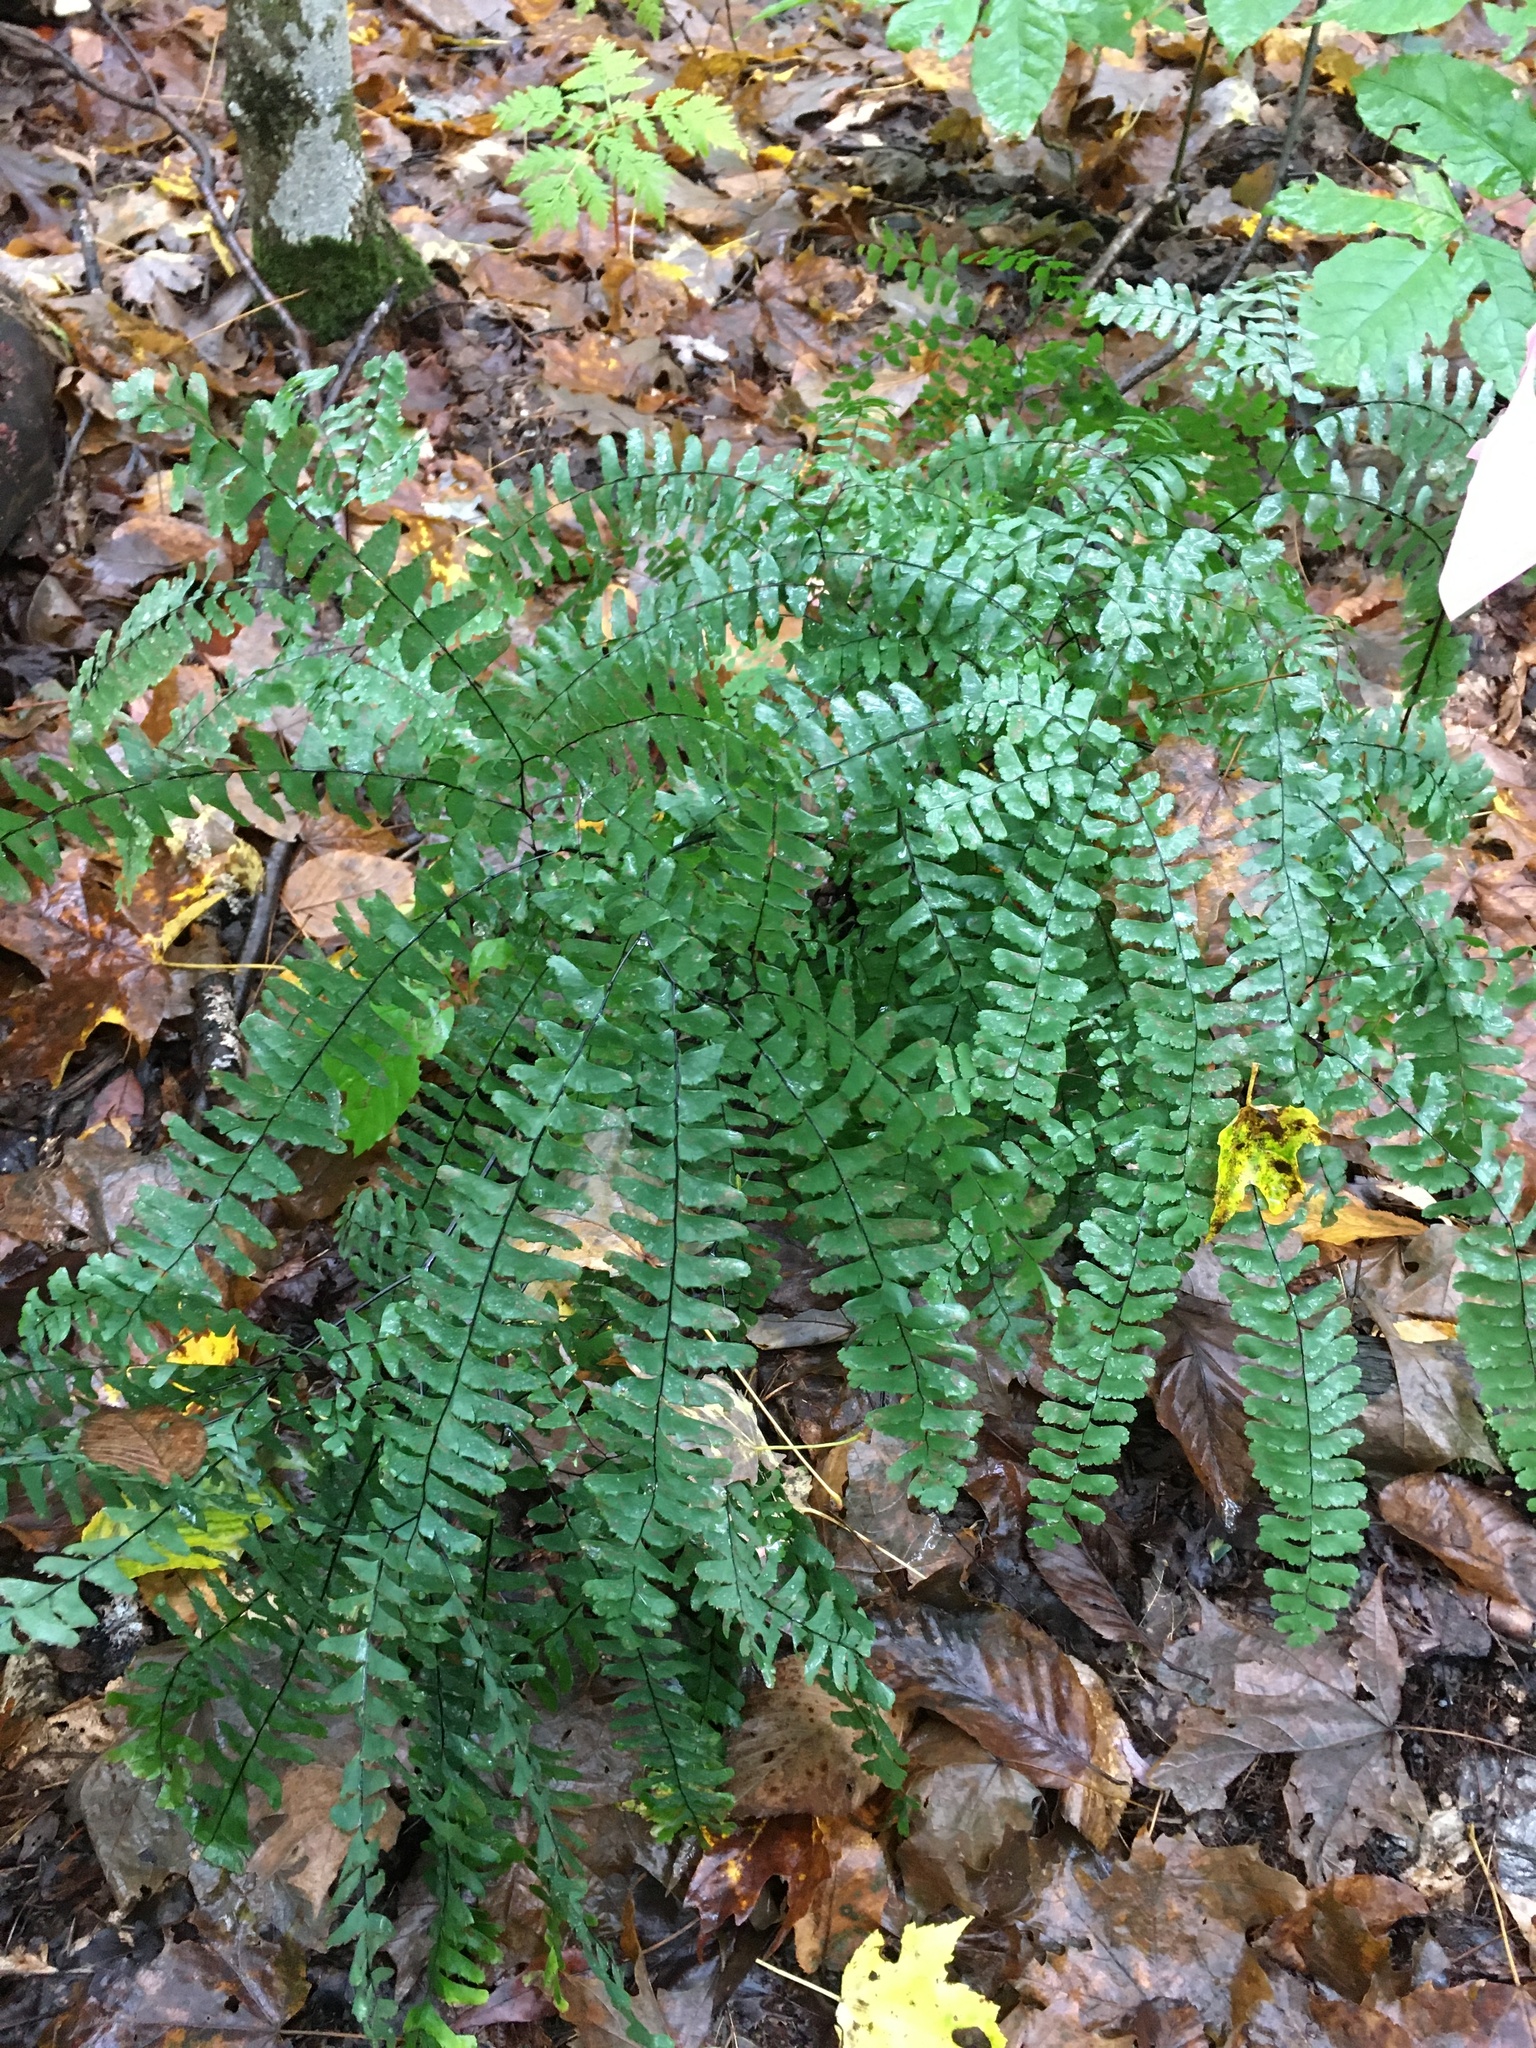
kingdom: Plantae
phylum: Tracheophyta
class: Polypodiopsida
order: Polypodiales
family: Pteridaceae
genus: Adiantum
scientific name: Adiantum pedatum
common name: Five-finger fern
